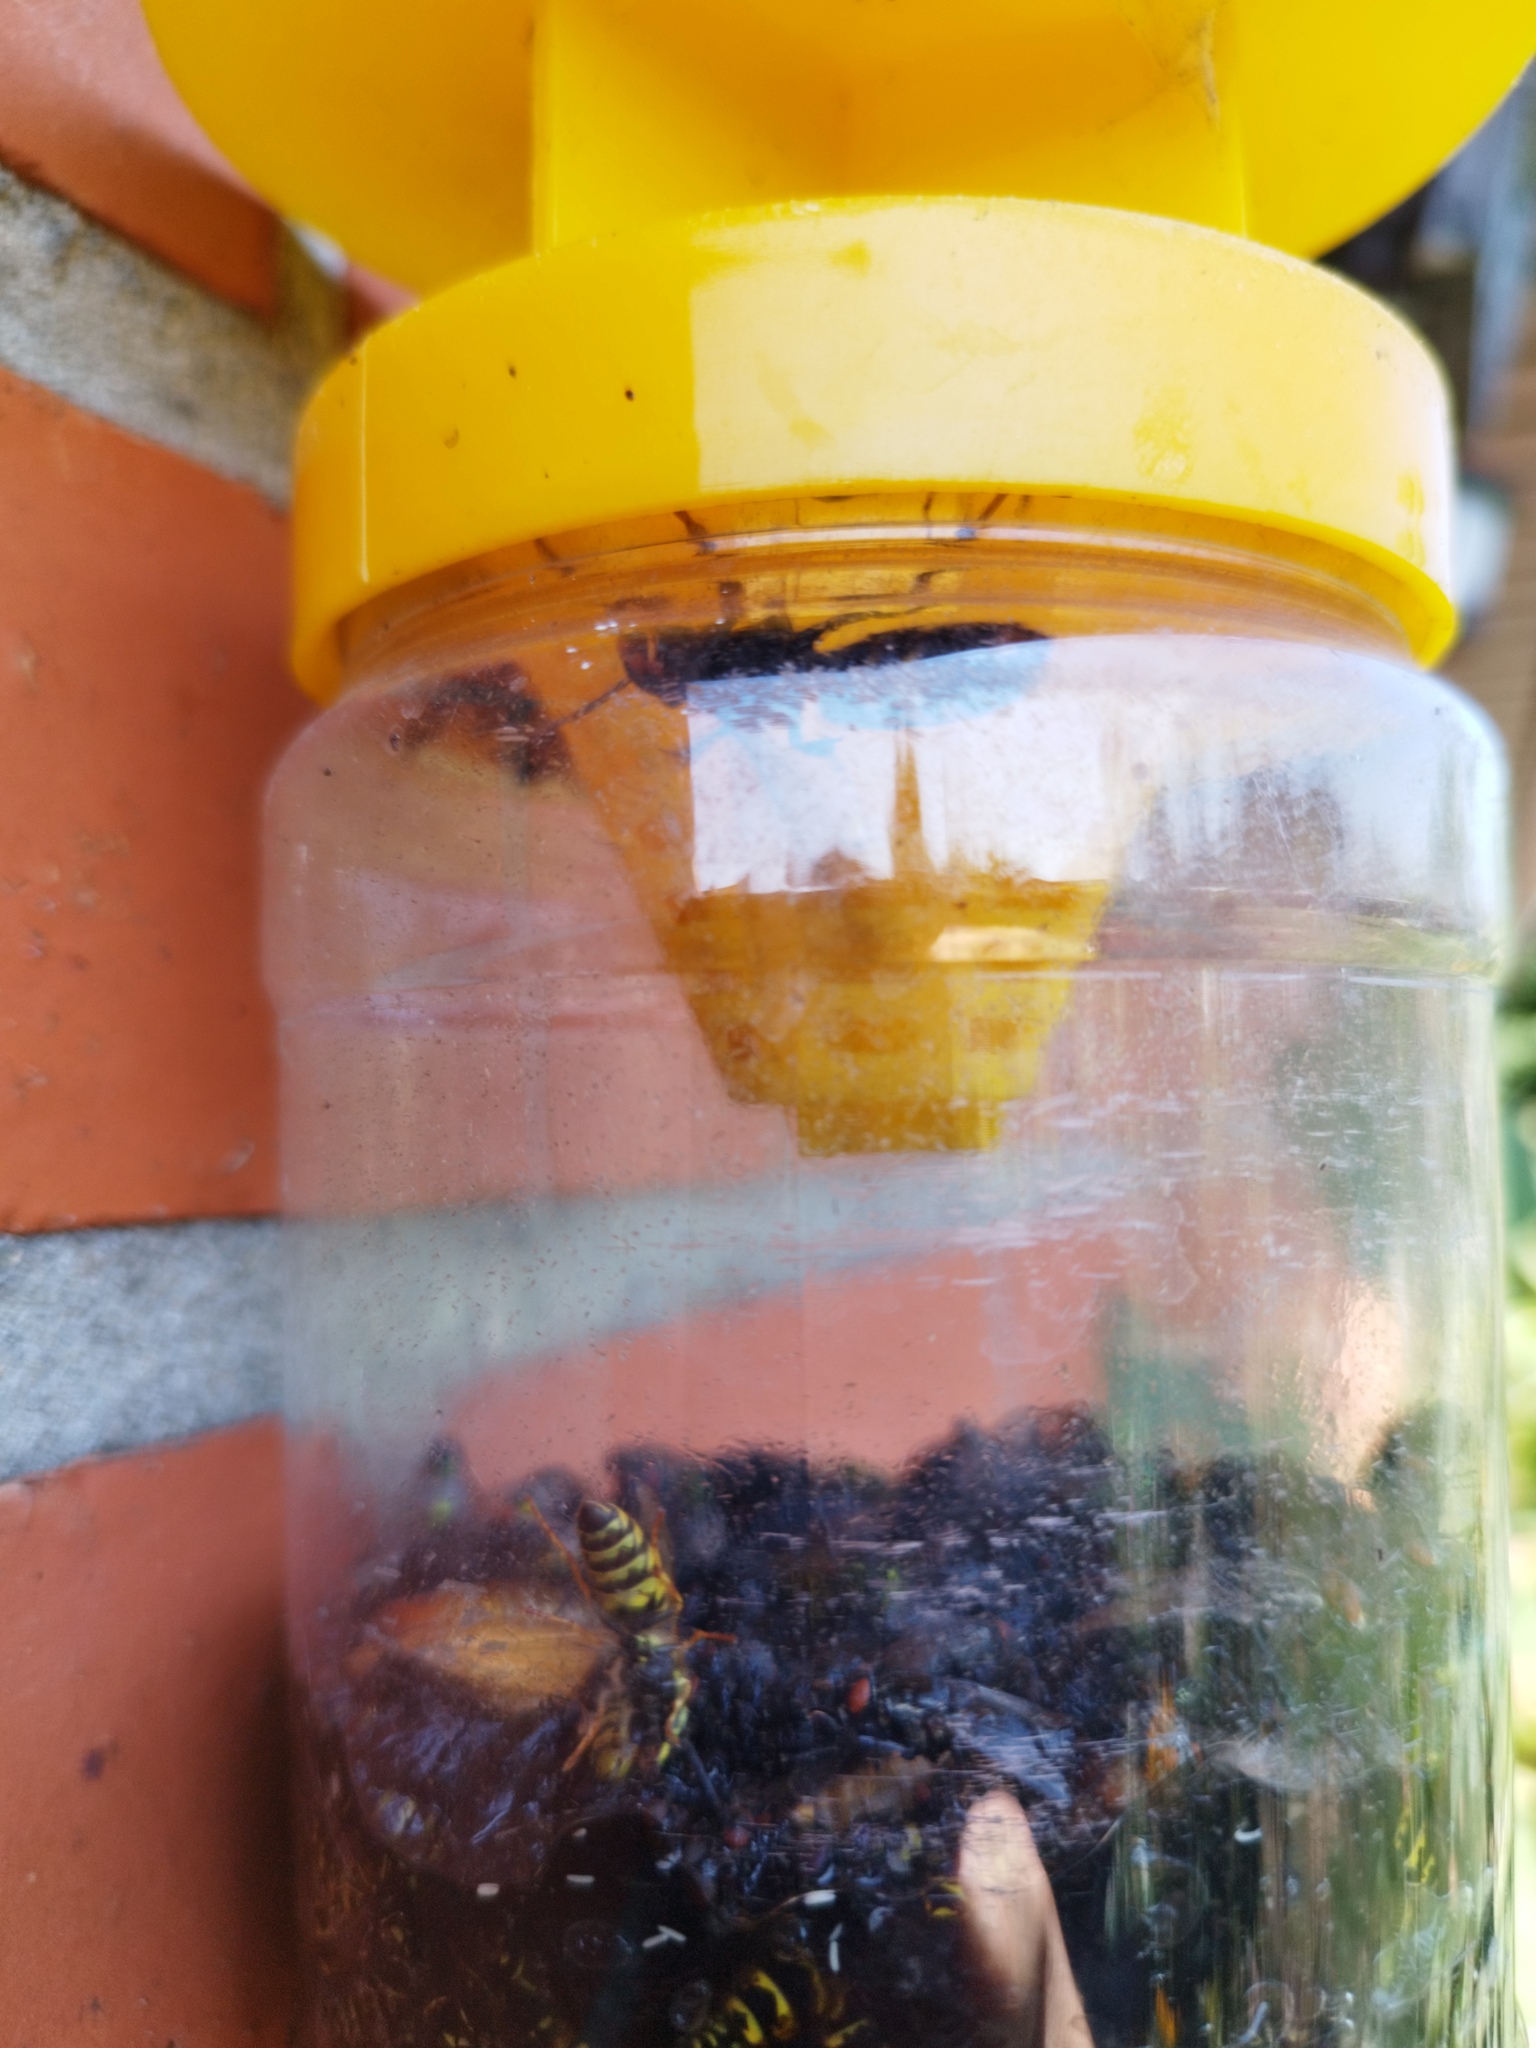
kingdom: Animalia
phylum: Arthropoda
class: Insecta
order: Hymenoptera
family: Vespidae
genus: Vespa
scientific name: Vespa velutina
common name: Asian hornet
